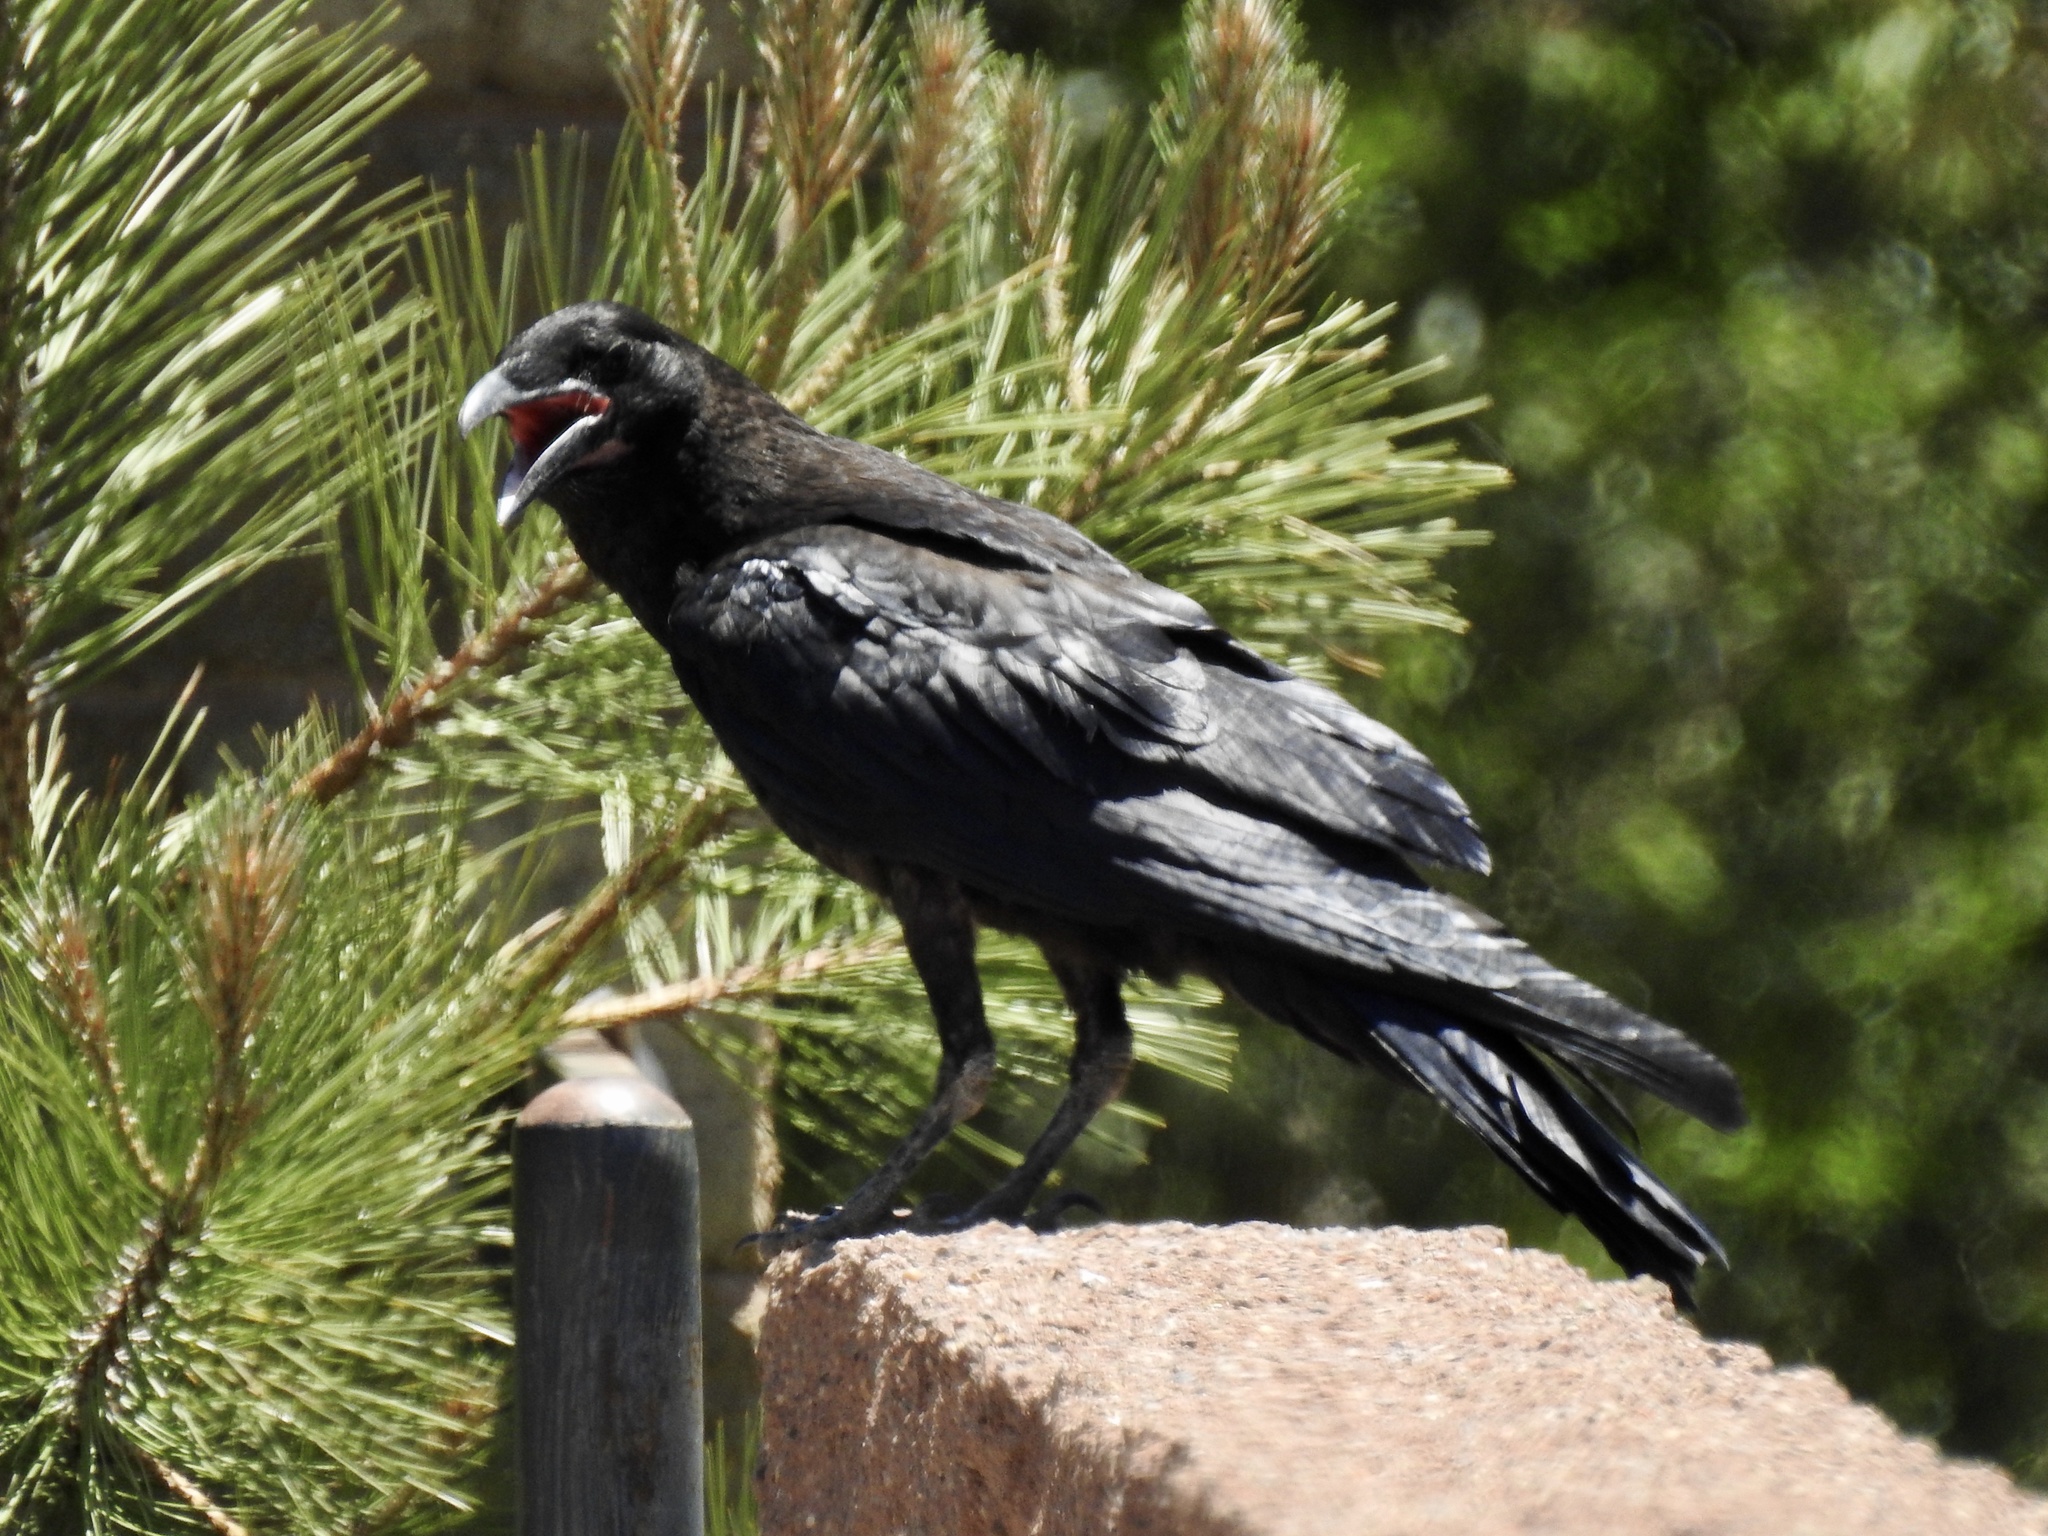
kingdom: Animalia
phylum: Chordata
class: Aves
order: Passeriformes
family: Corvidae
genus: Corvus
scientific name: Corvus corax
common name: Common raven
